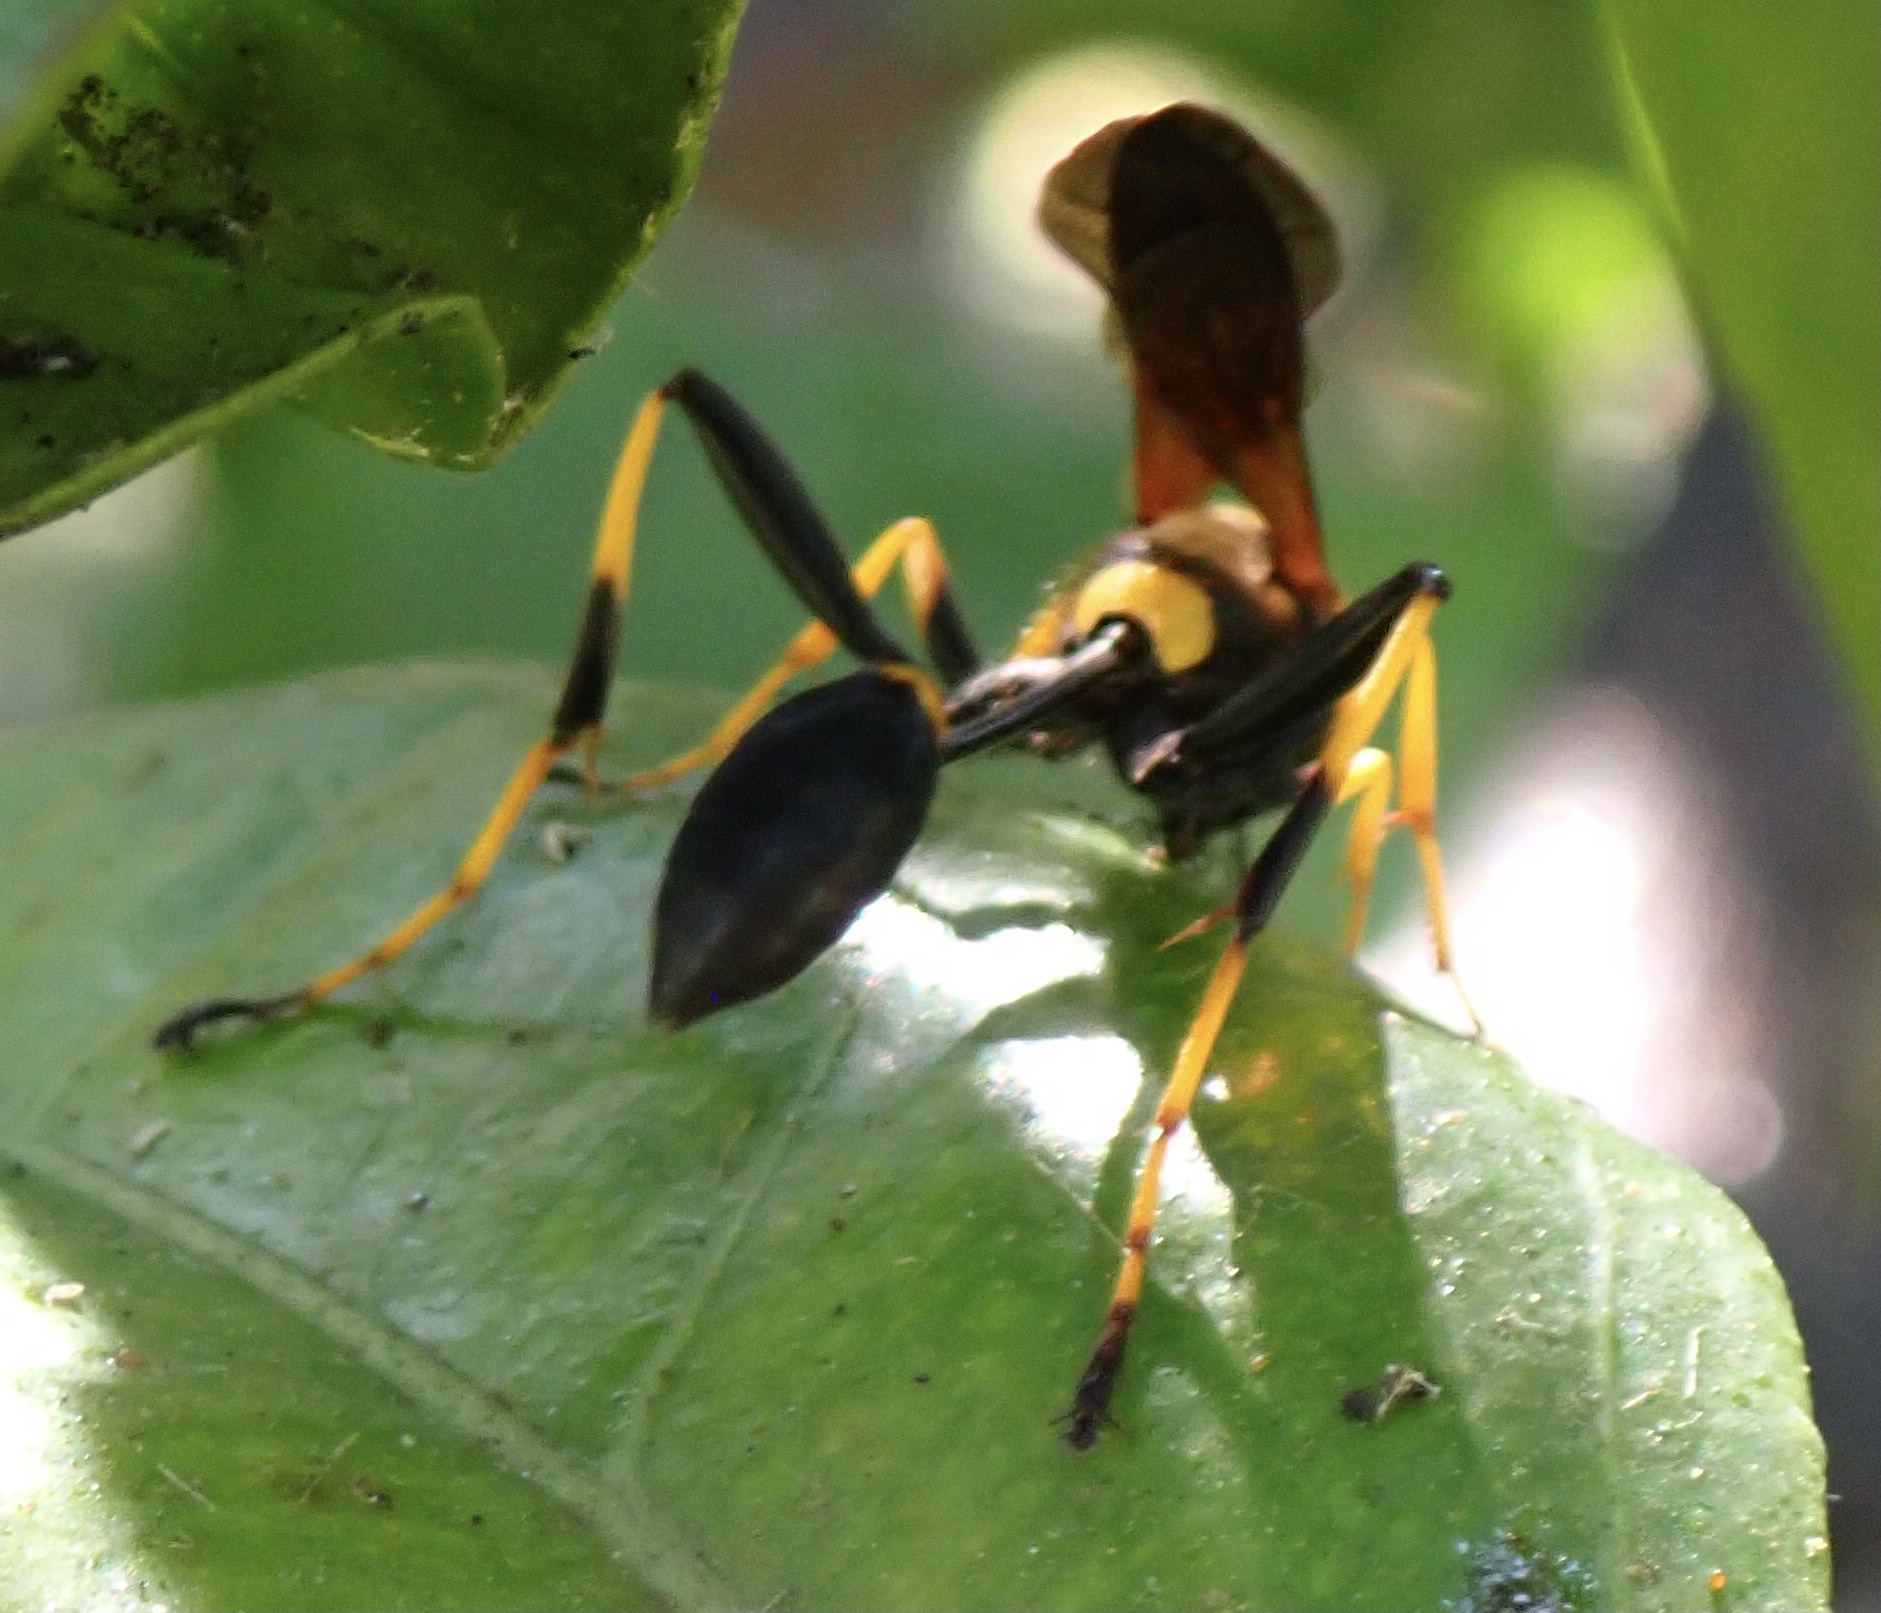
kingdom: Animalia
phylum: Arthropoda
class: Insecta
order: Hymenoptera
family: Sphecidae
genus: Sceliphron
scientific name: Sceliphron caementarium
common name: Mud dauber
